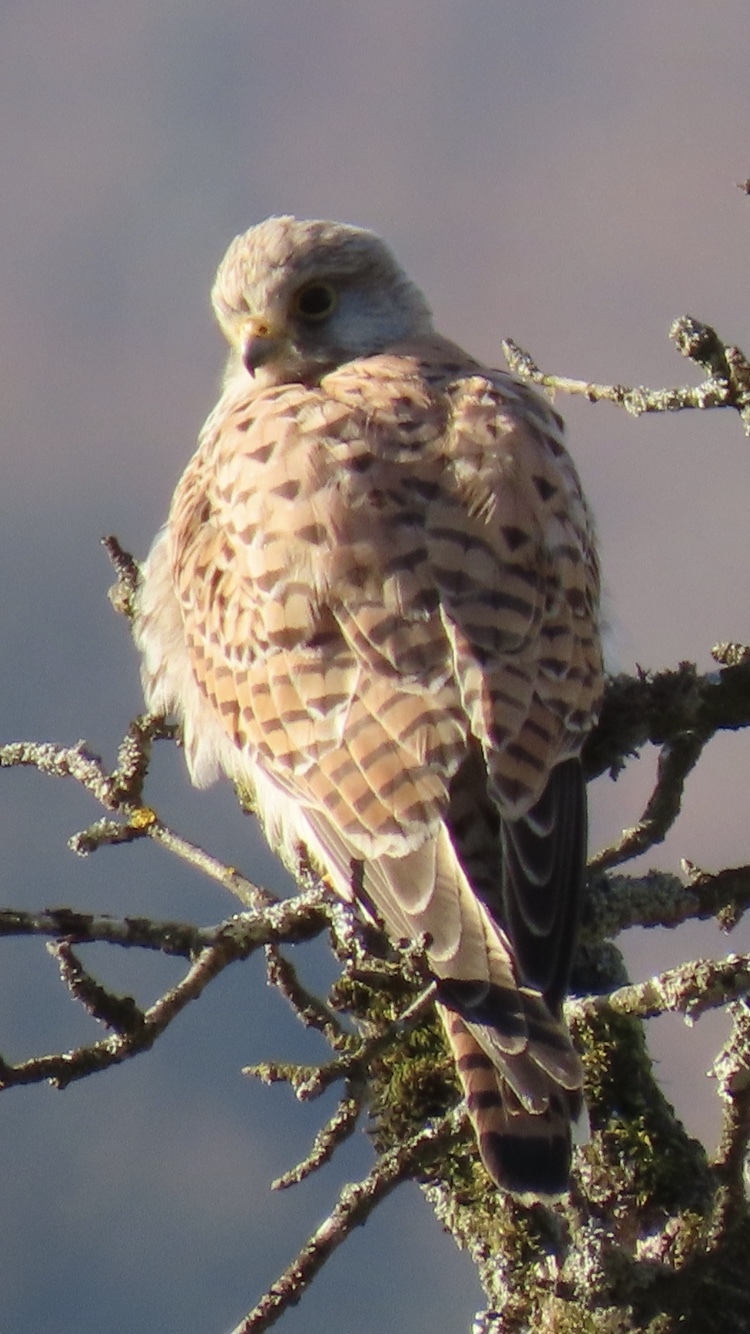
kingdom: Animalia
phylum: Chordata
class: Aves
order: Falconiformes
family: Falconidae
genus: Falco
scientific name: Falco tinnunculus
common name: Common kestrel
